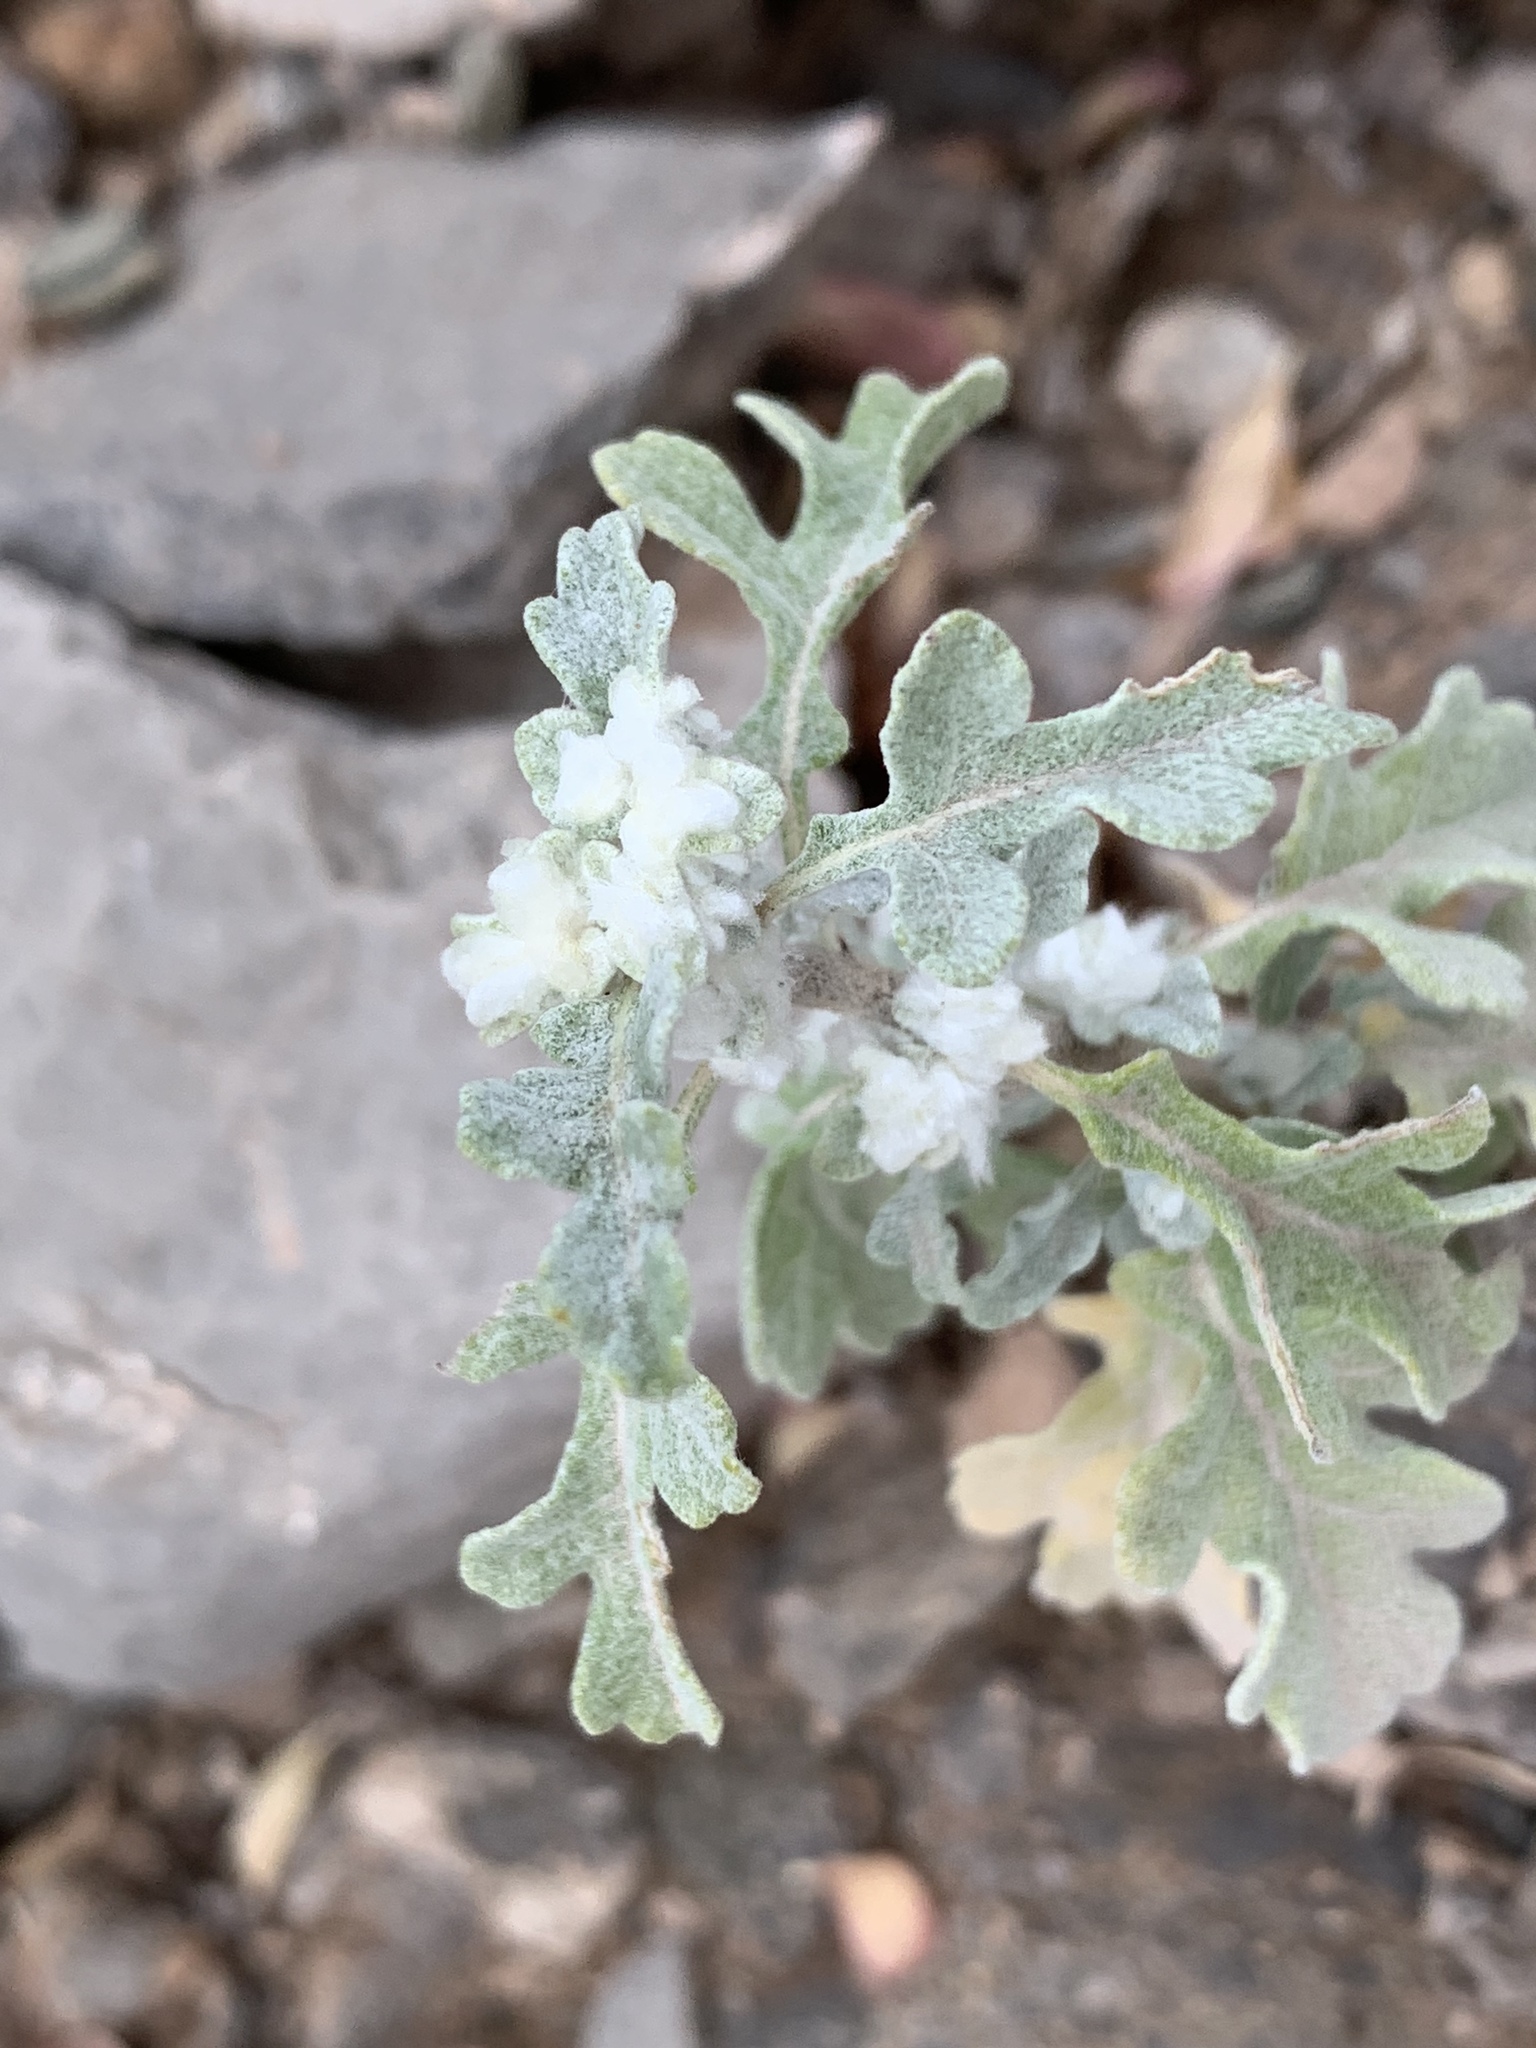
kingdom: Plantae
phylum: Tracheophyta
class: Magnoliopsida
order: Asterales
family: Asteraceae
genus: Parthenium
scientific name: Parthenium incanum
